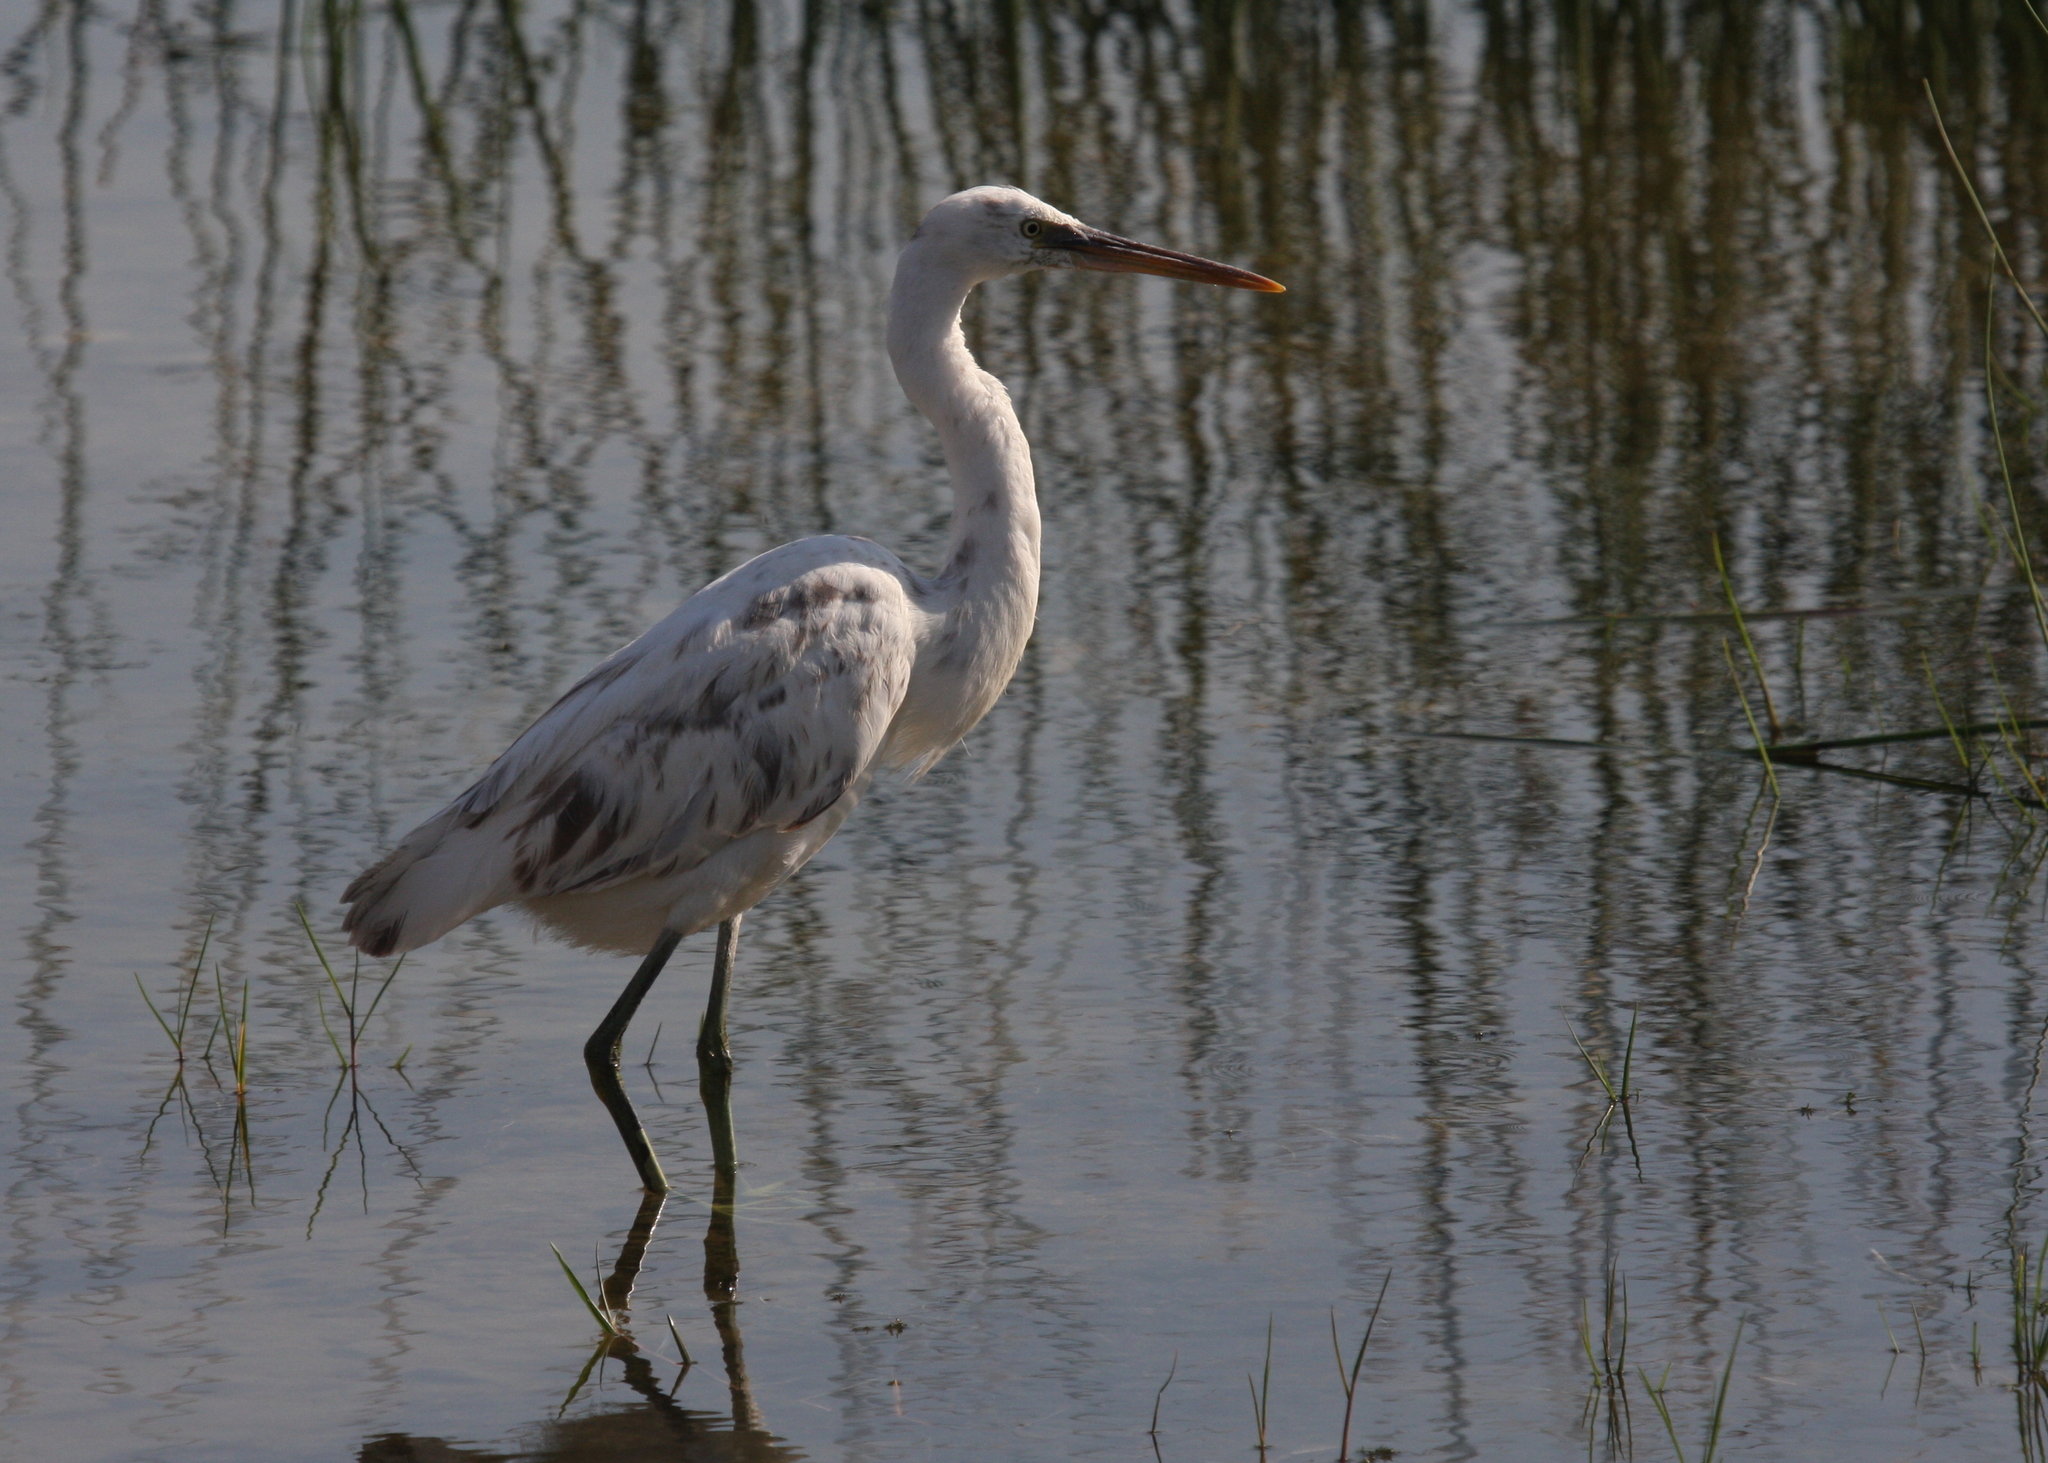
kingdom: Animalia
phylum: Chordata
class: Aves
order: Pelecaniformes
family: Ardeidae
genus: Egretta
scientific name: Egretta gularis
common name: Western reef-heron
